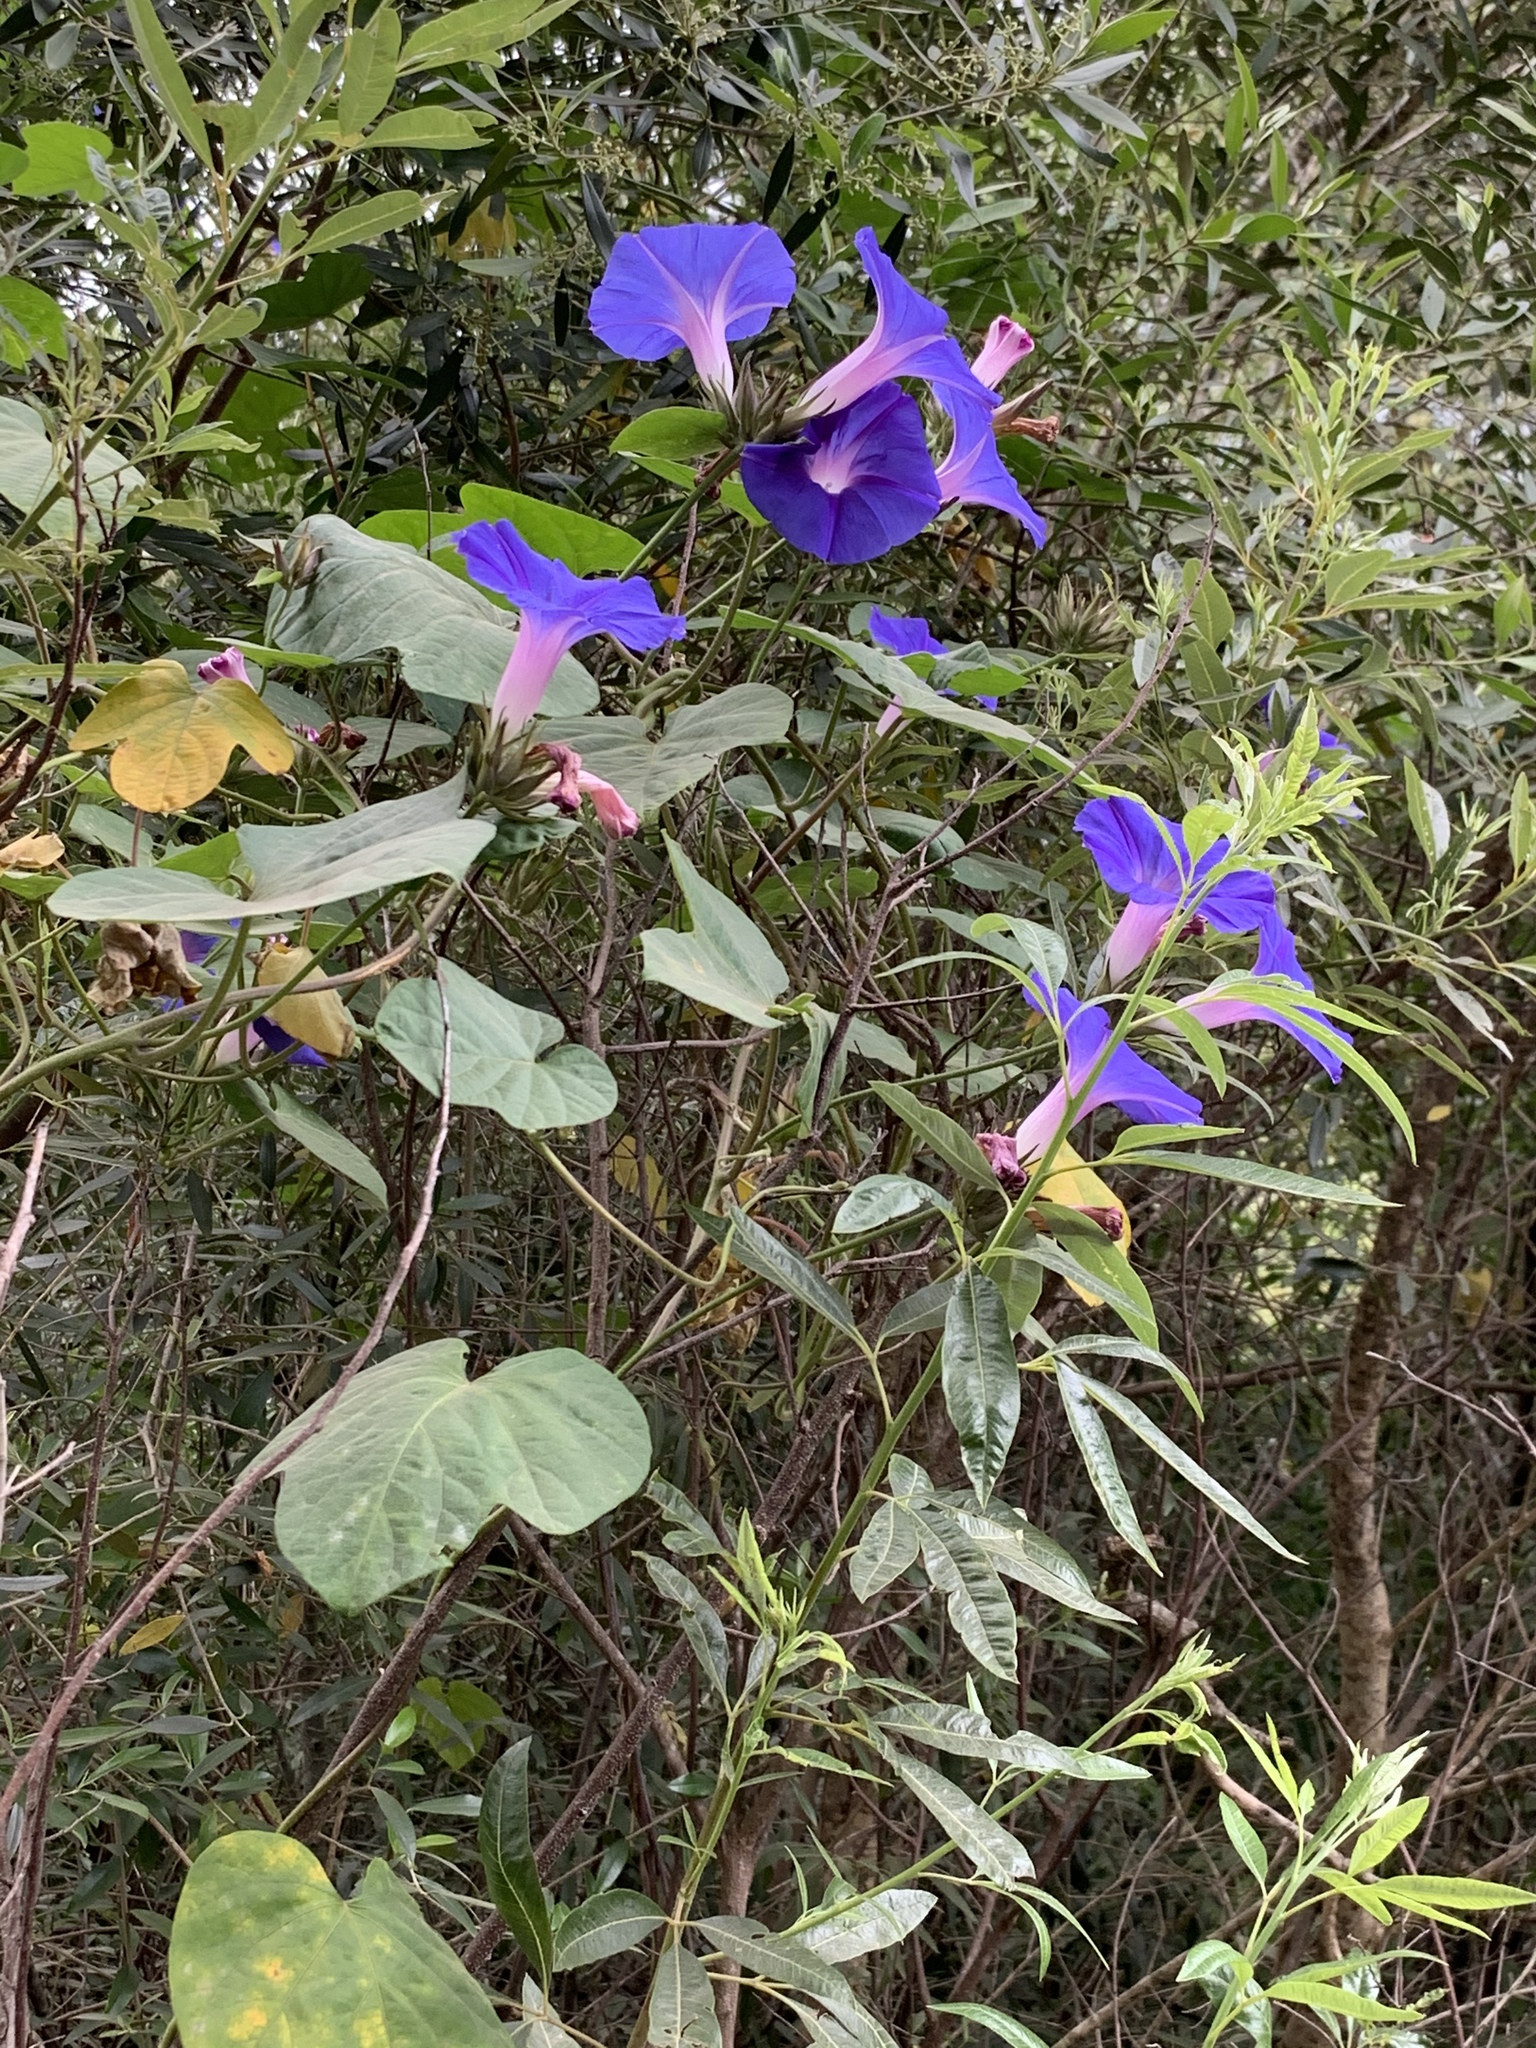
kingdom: Plantae
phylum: Tracheophyta
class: Magnoliopsida
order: Solanales
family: Convolvulaceae
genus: Ipomoea
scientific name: Ipomoea indica
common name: Blue dawnflower
